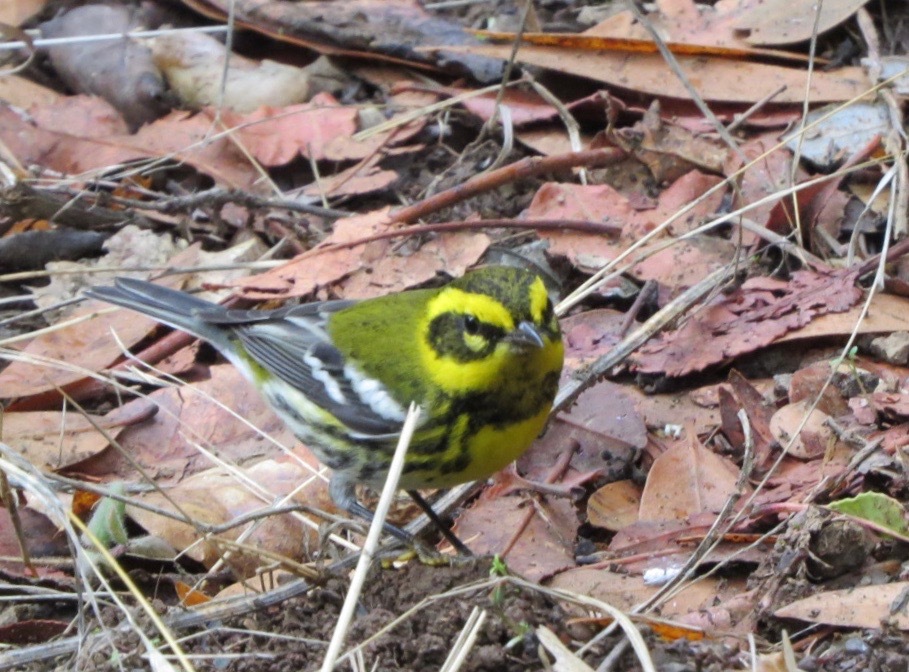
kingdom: Animalia
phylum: Chordata
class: Aves
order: Passeriformes
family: Parulidae
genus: Setophaga
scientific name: Setophaga townsendi
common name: Townsend's warbler
